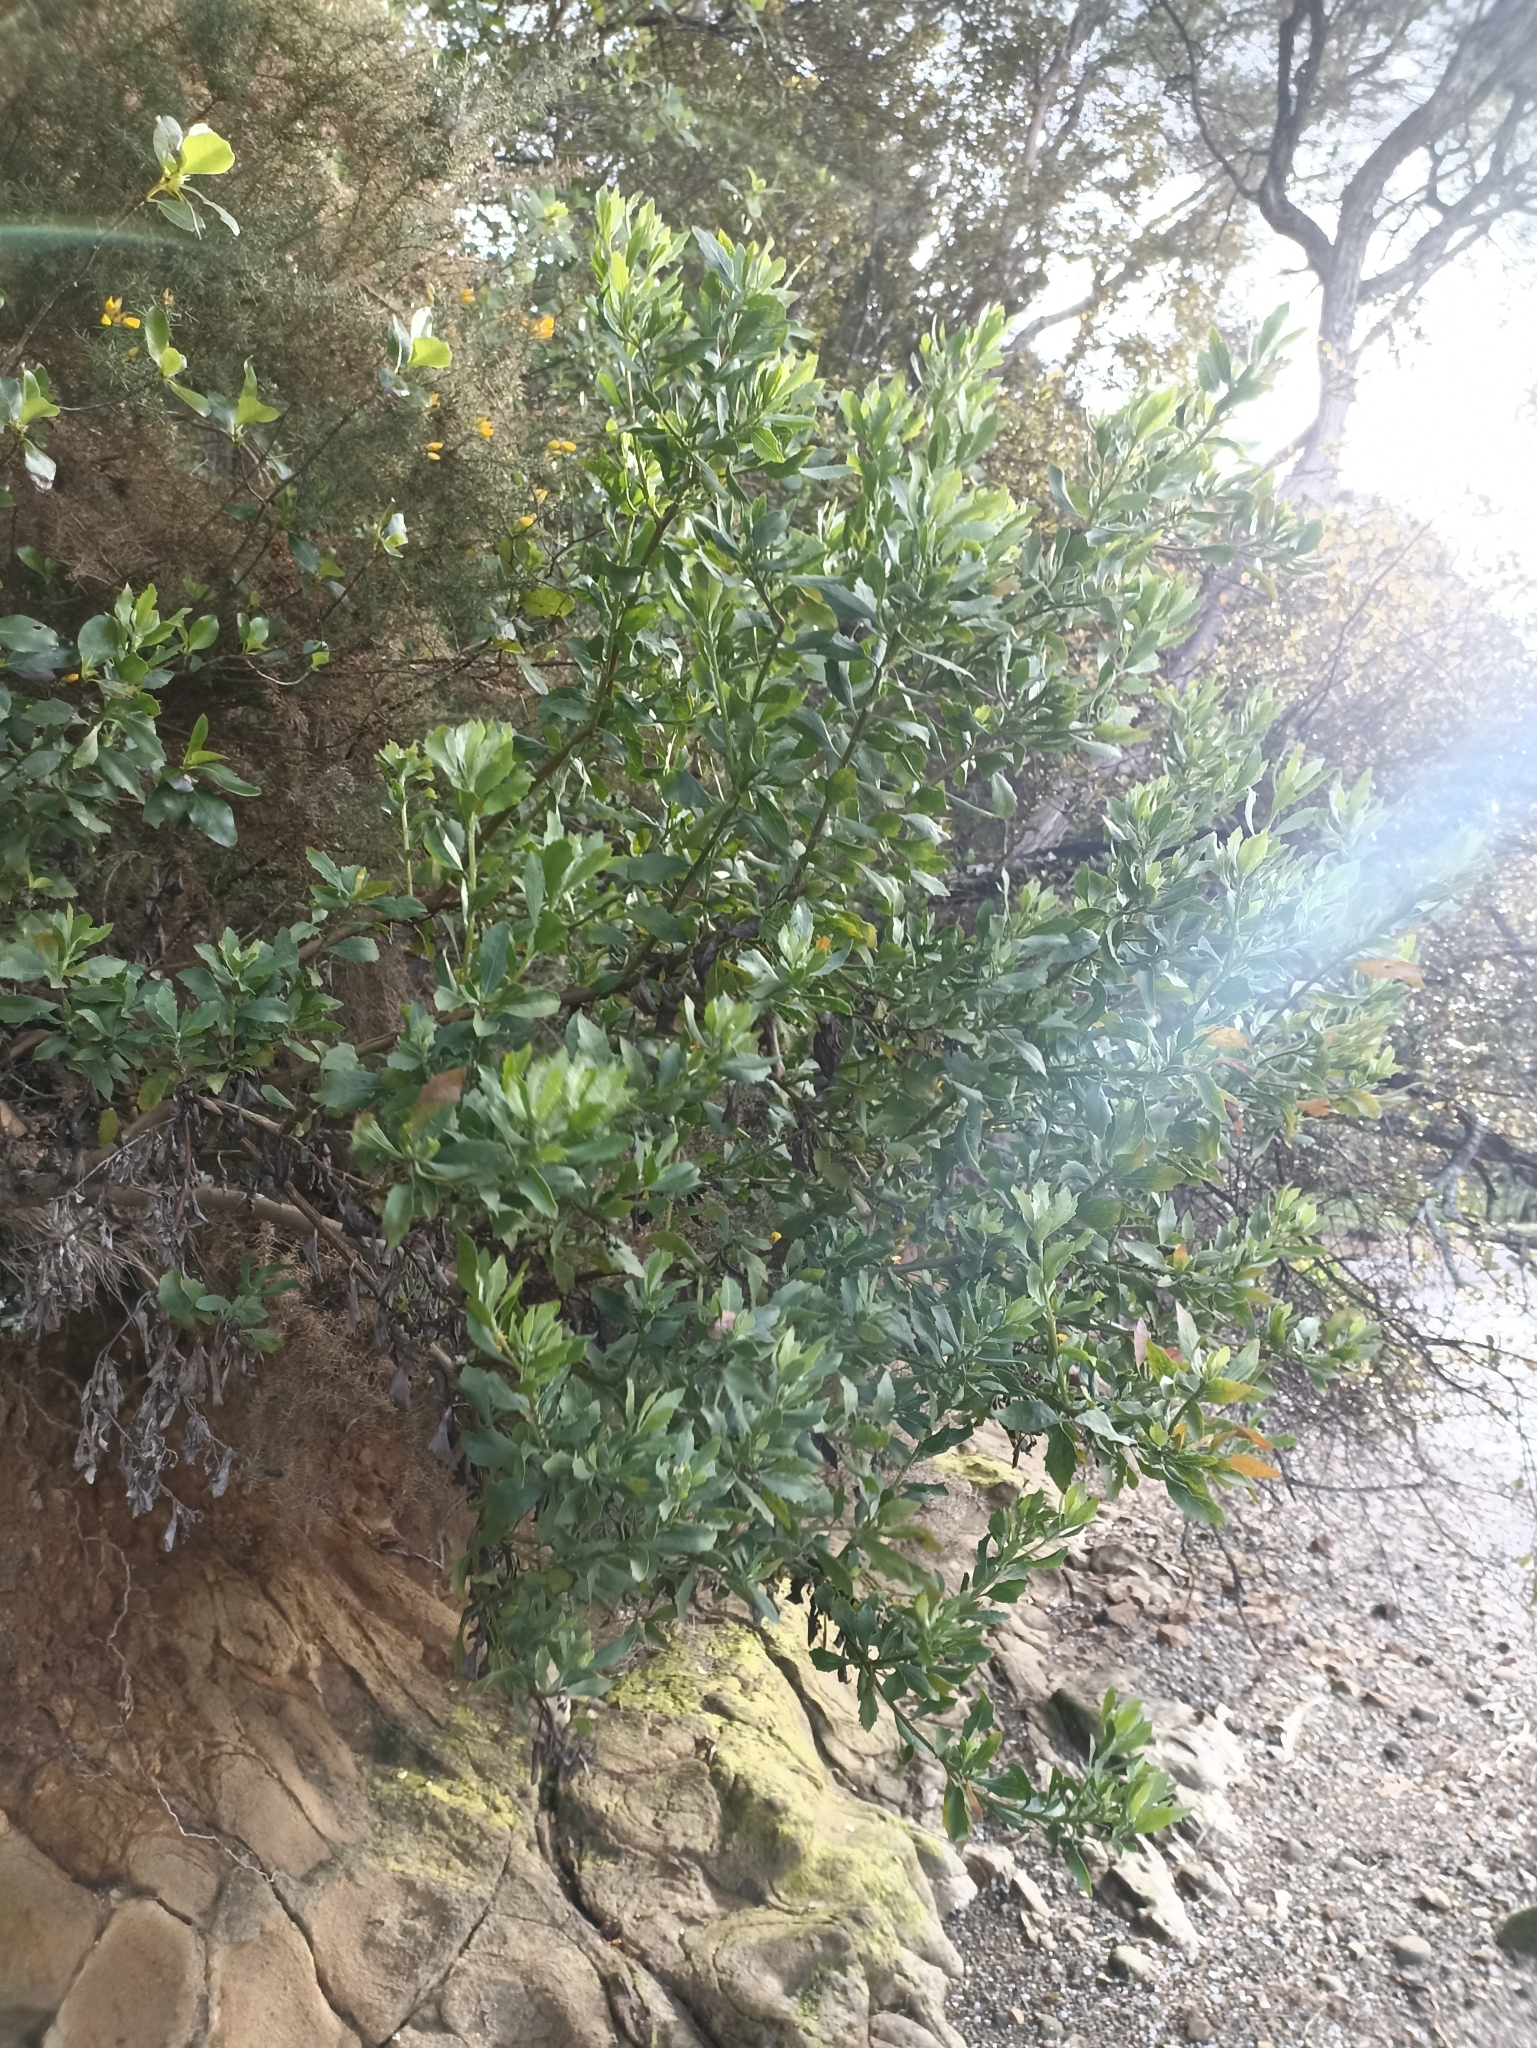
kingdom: Plantae
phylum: Tracheophyta
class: Magnoliopsida
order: Asterales
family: Asteraceae
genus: Osteospermum
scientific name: Osteospermum moniliferum
